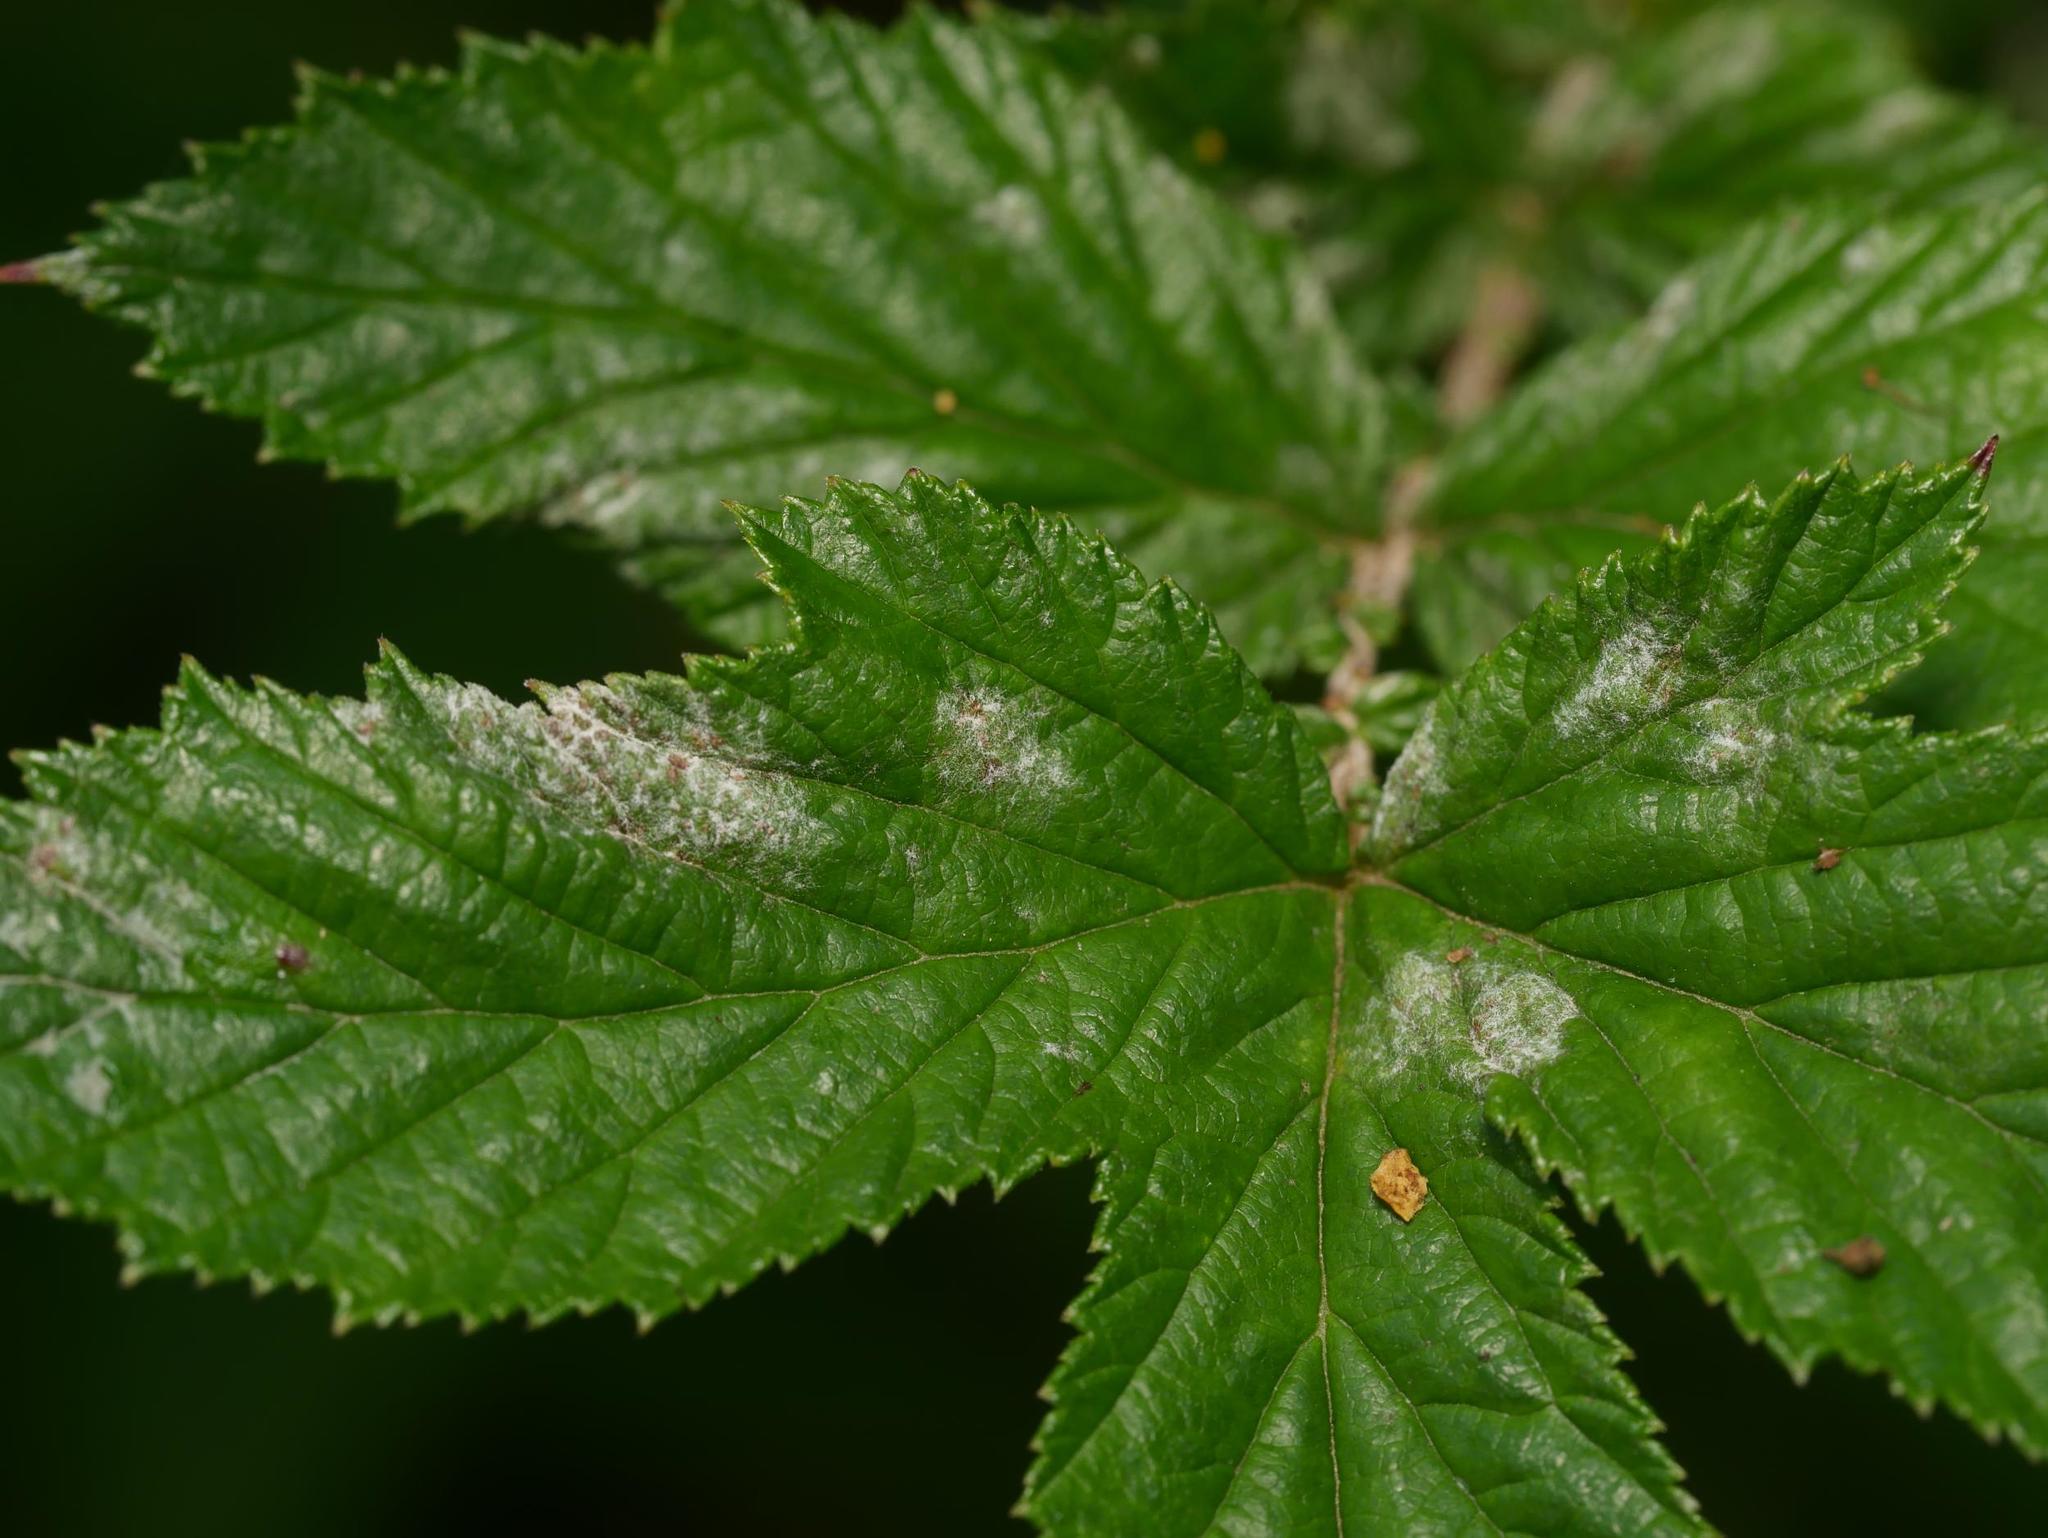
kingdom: Fungi
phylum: Ascomycota
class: Leotiomycetes
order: Helotiales
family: Erysiphaceae
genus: Podosphaera
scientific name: Podosphaera filipendulae
